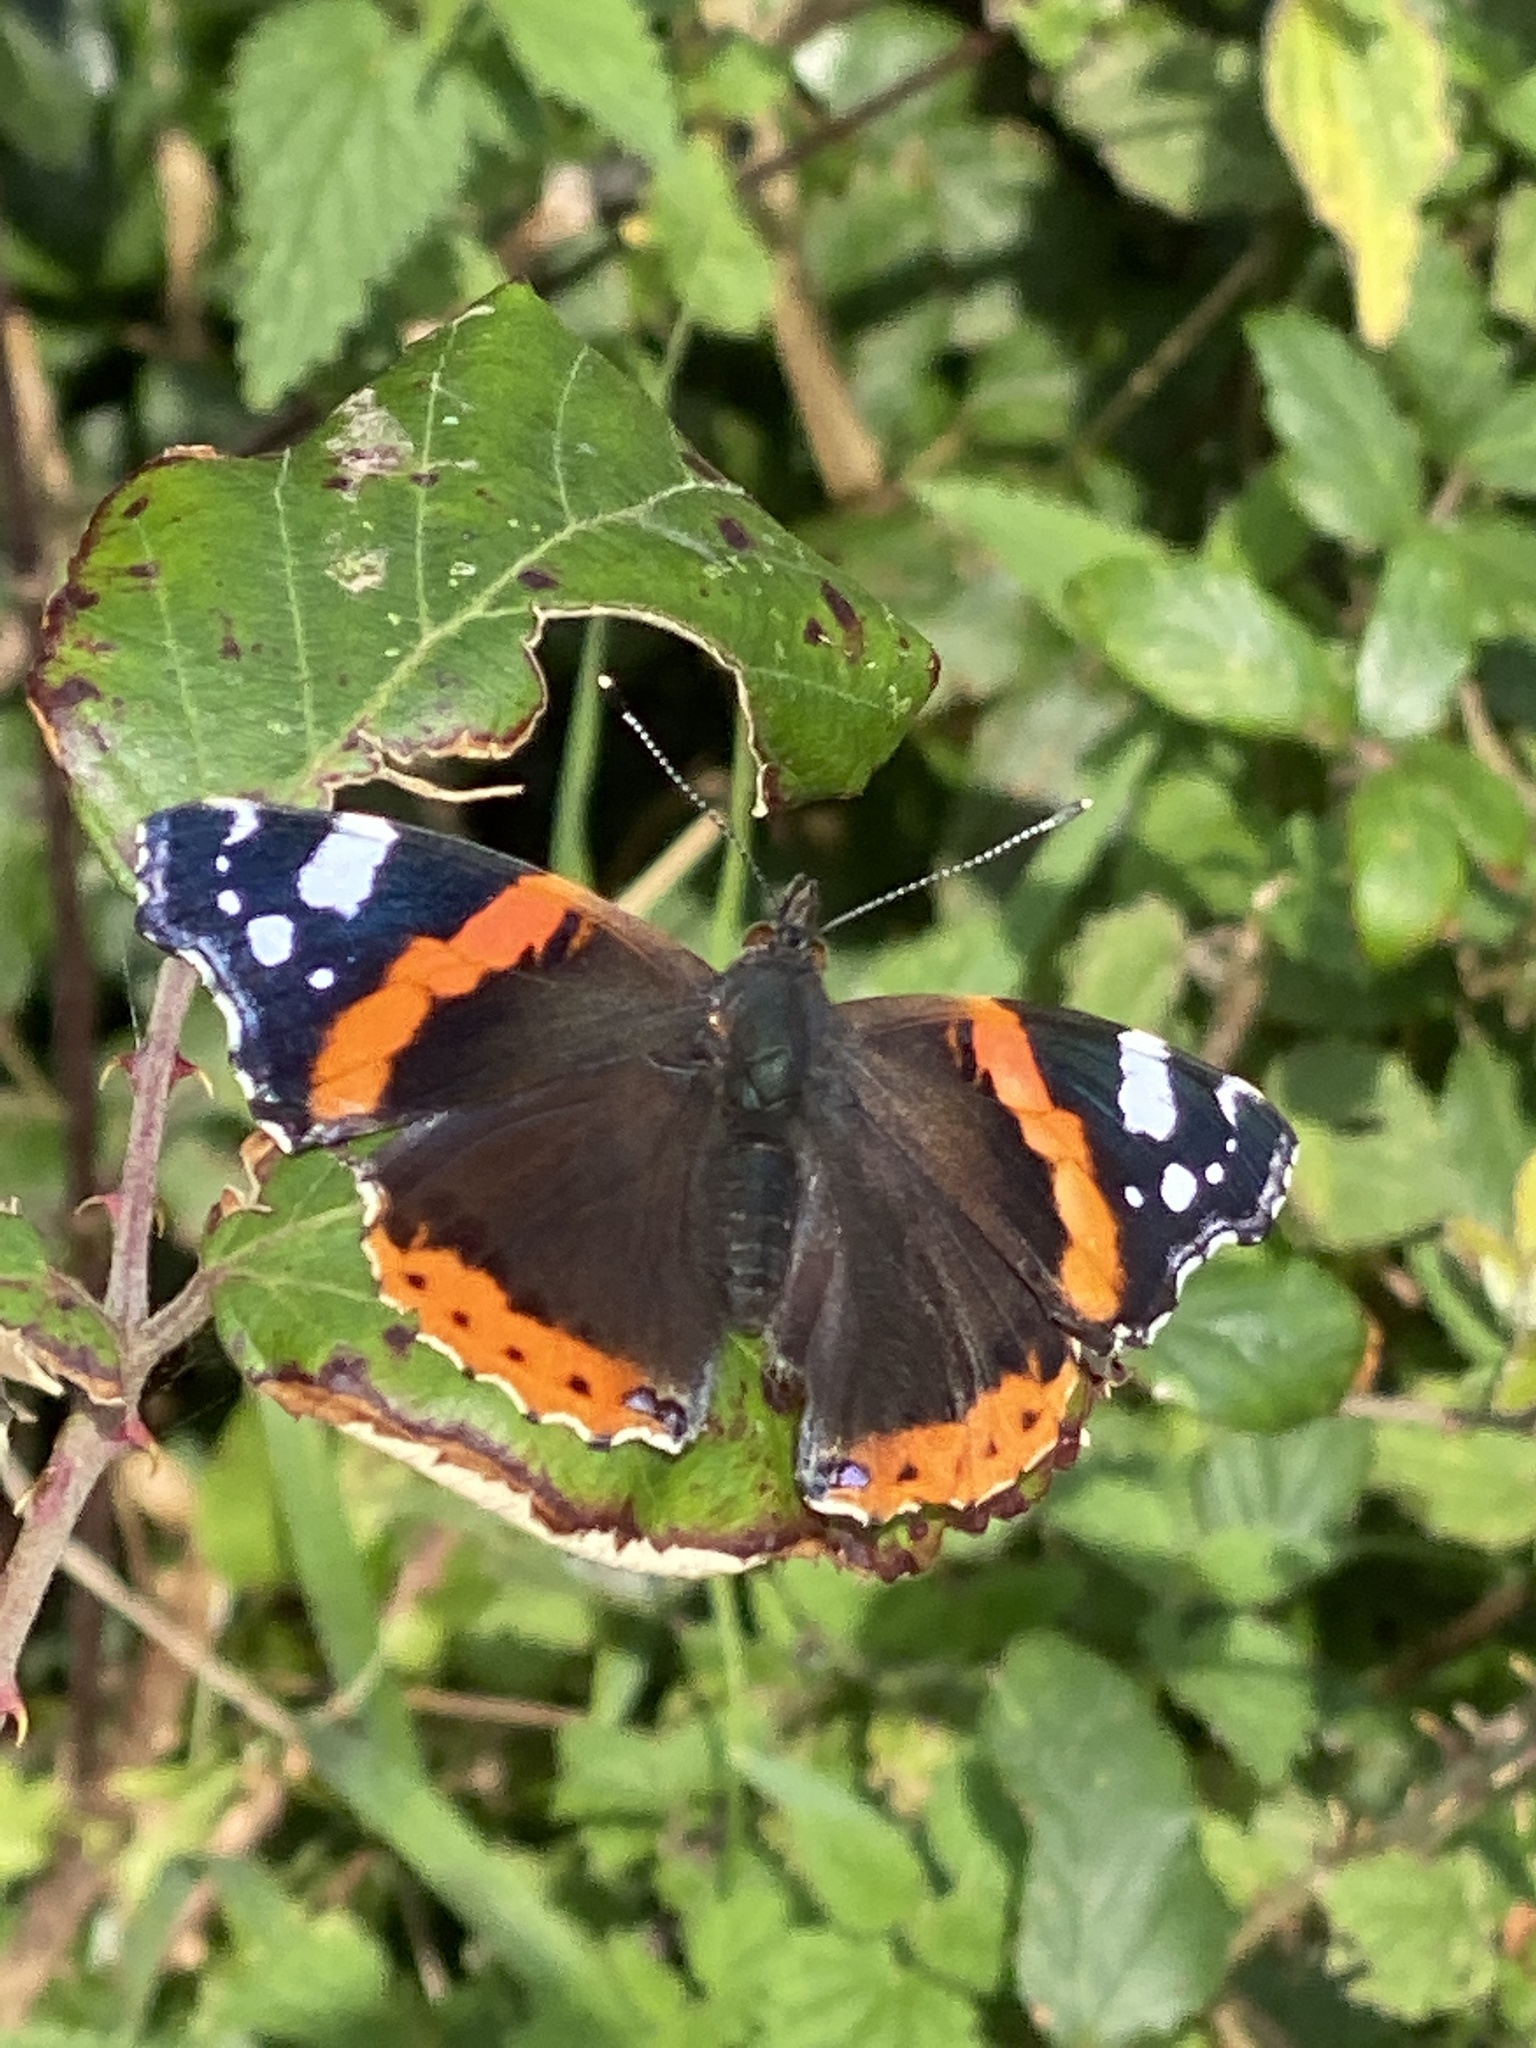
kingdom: Animalia
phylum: Arthropoda
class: Insecta
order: Lepidoptera
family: Nymphalidae
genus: Vanessa
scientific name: Vanessa atalanta
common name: Red admiral
